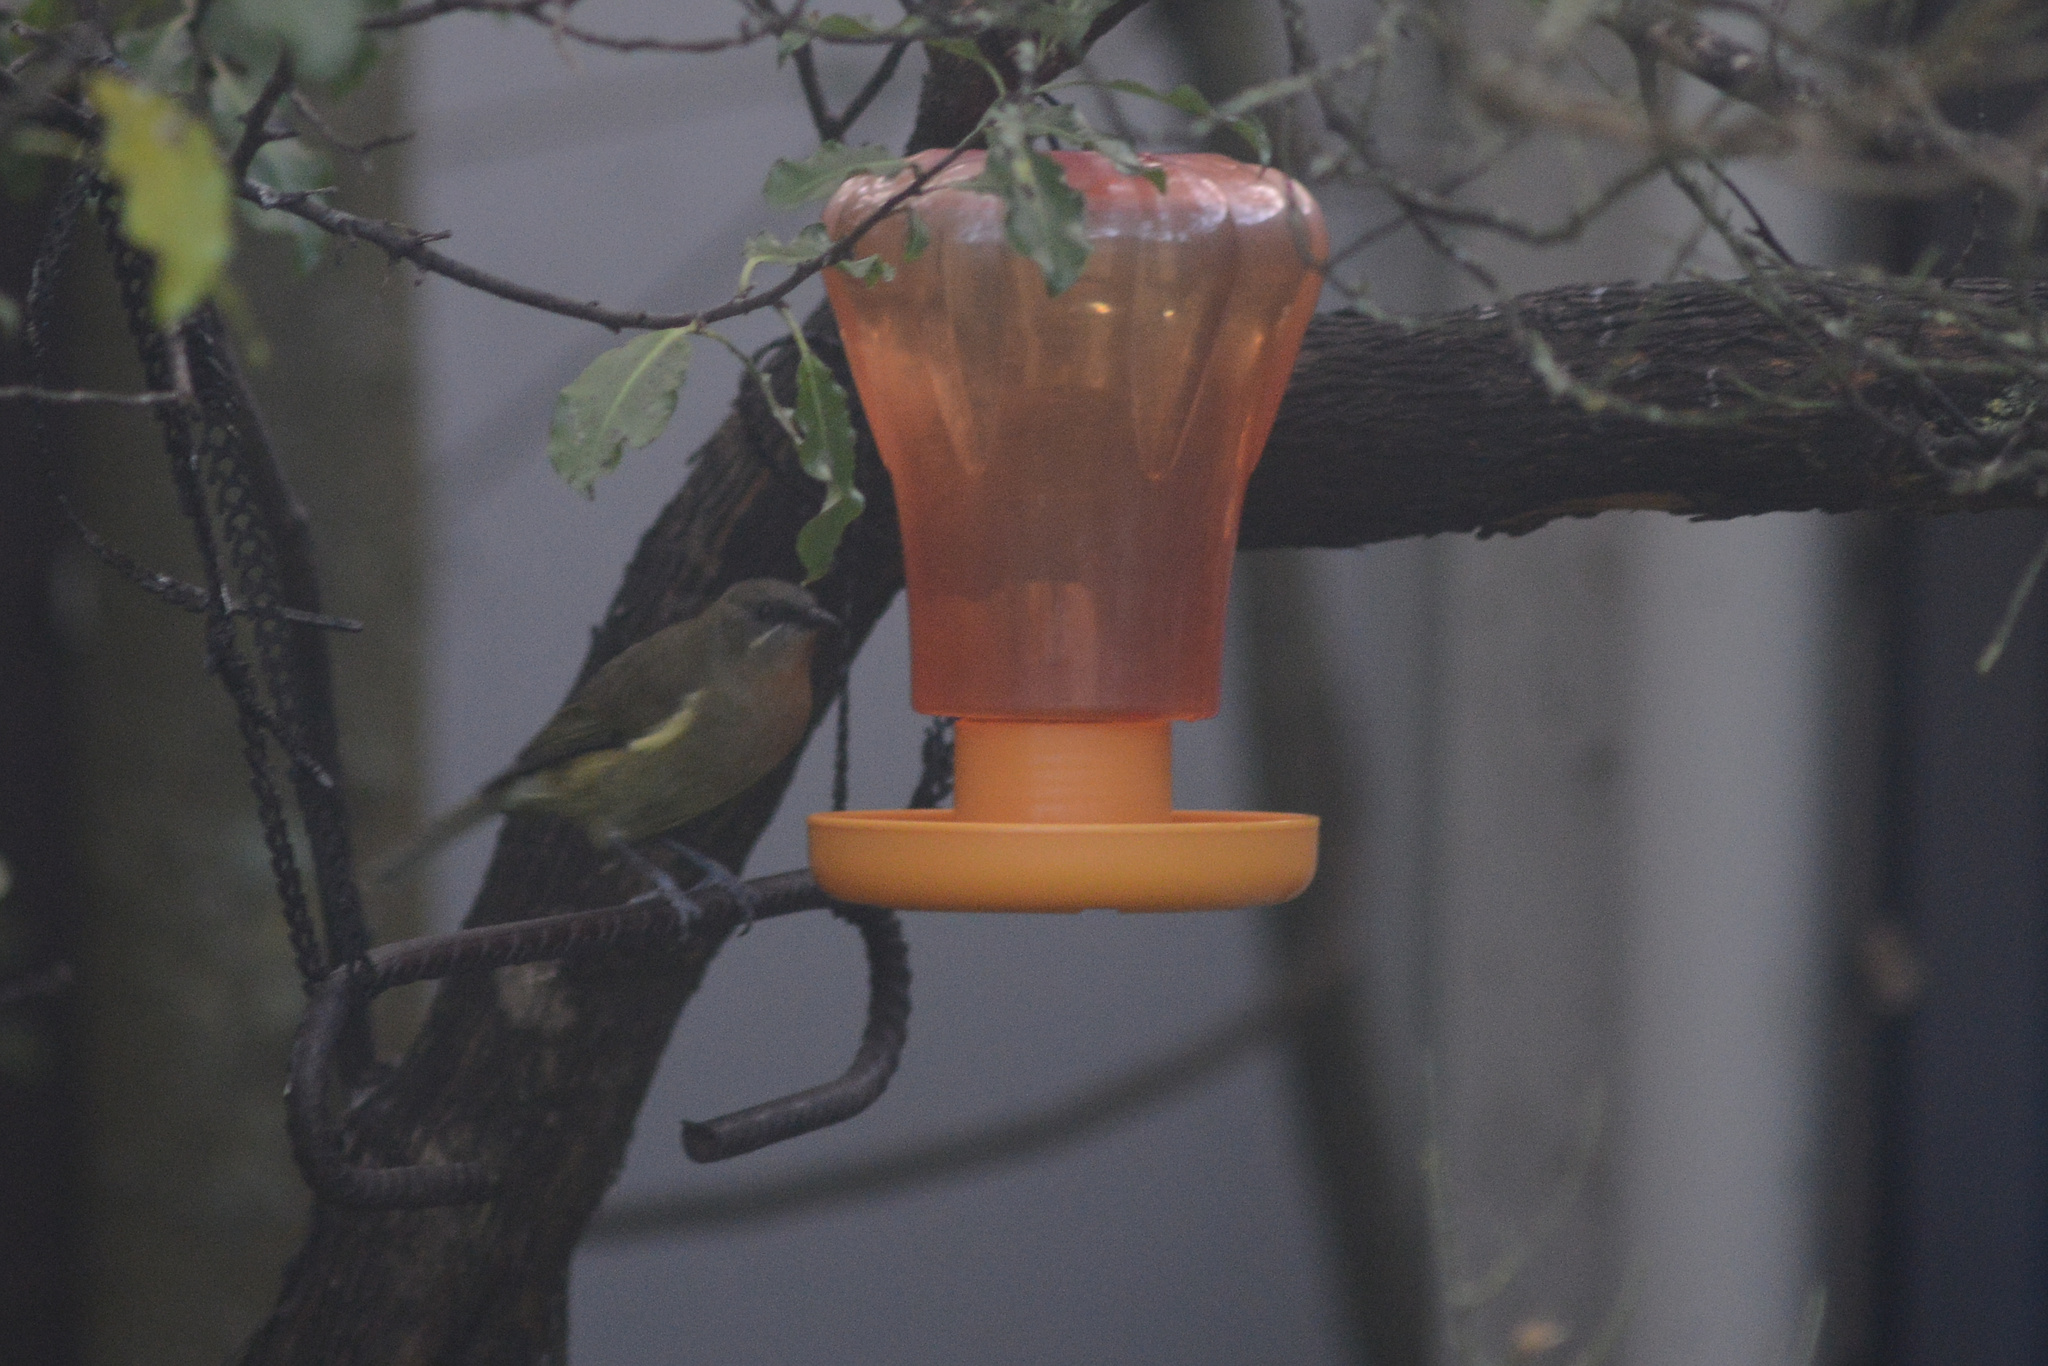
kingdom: Animalia
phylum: Chordata
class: Aves
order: Passeriformes
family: Meliphagidae
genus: Anthornis
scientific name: Anthornis melanura
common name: New zealand bellbird
